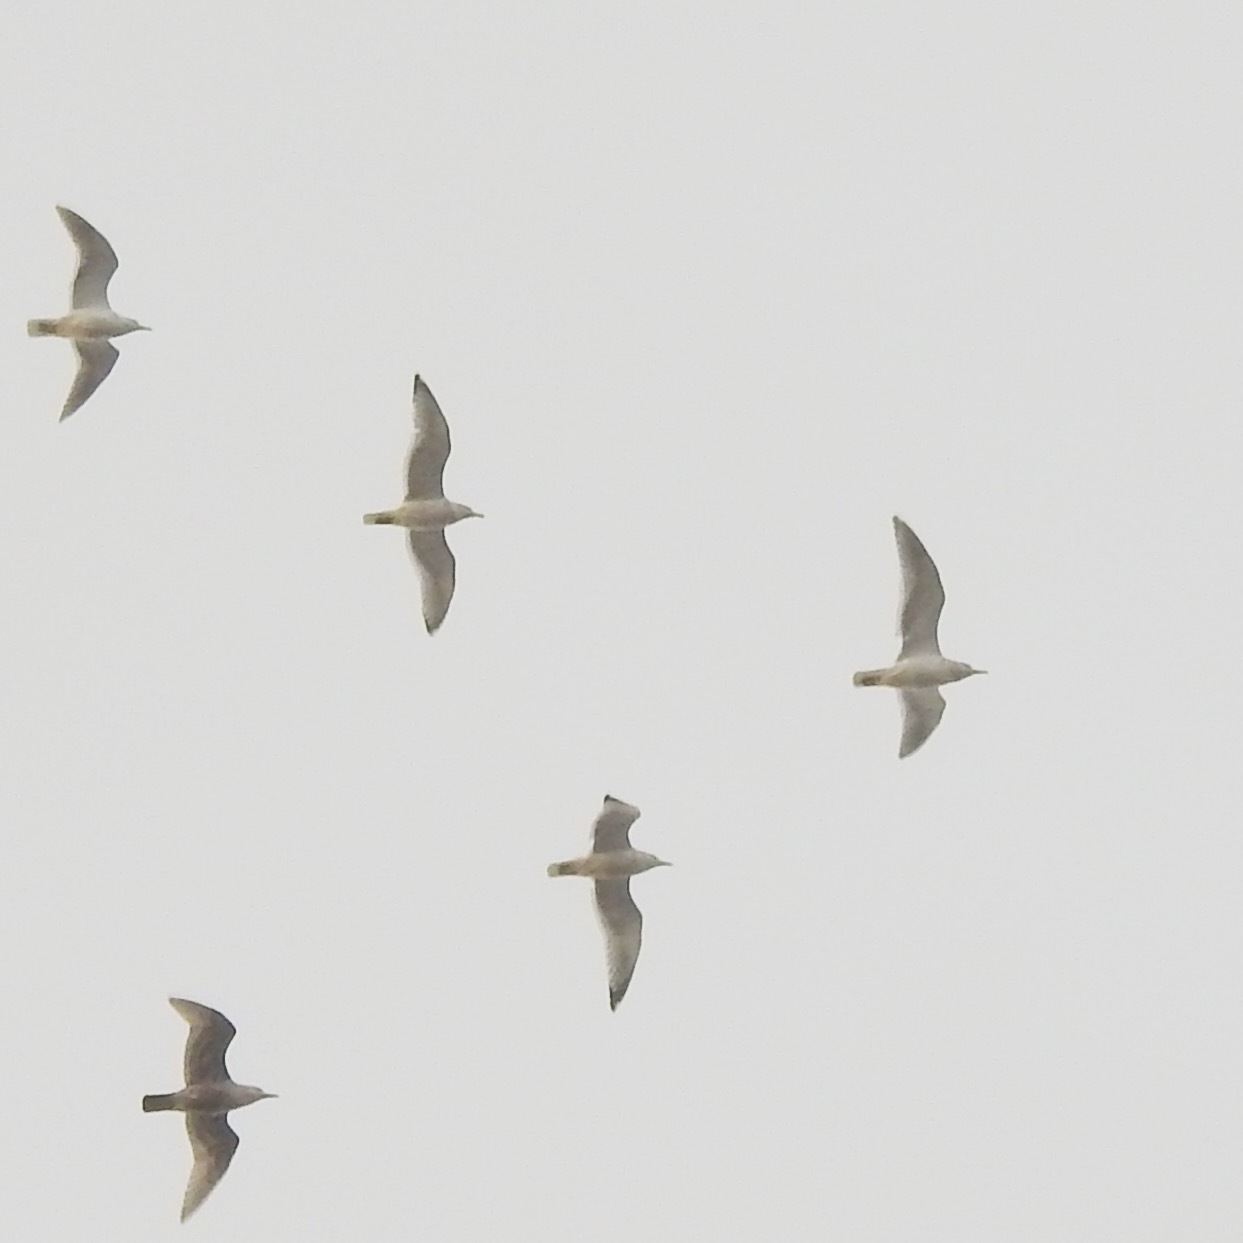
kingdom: Animalia
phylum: Chordata
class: Aves
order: Charadriiformes
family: Laridae
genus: Larus
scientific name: Larus brachyrhynchus
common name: Short-billed gull
